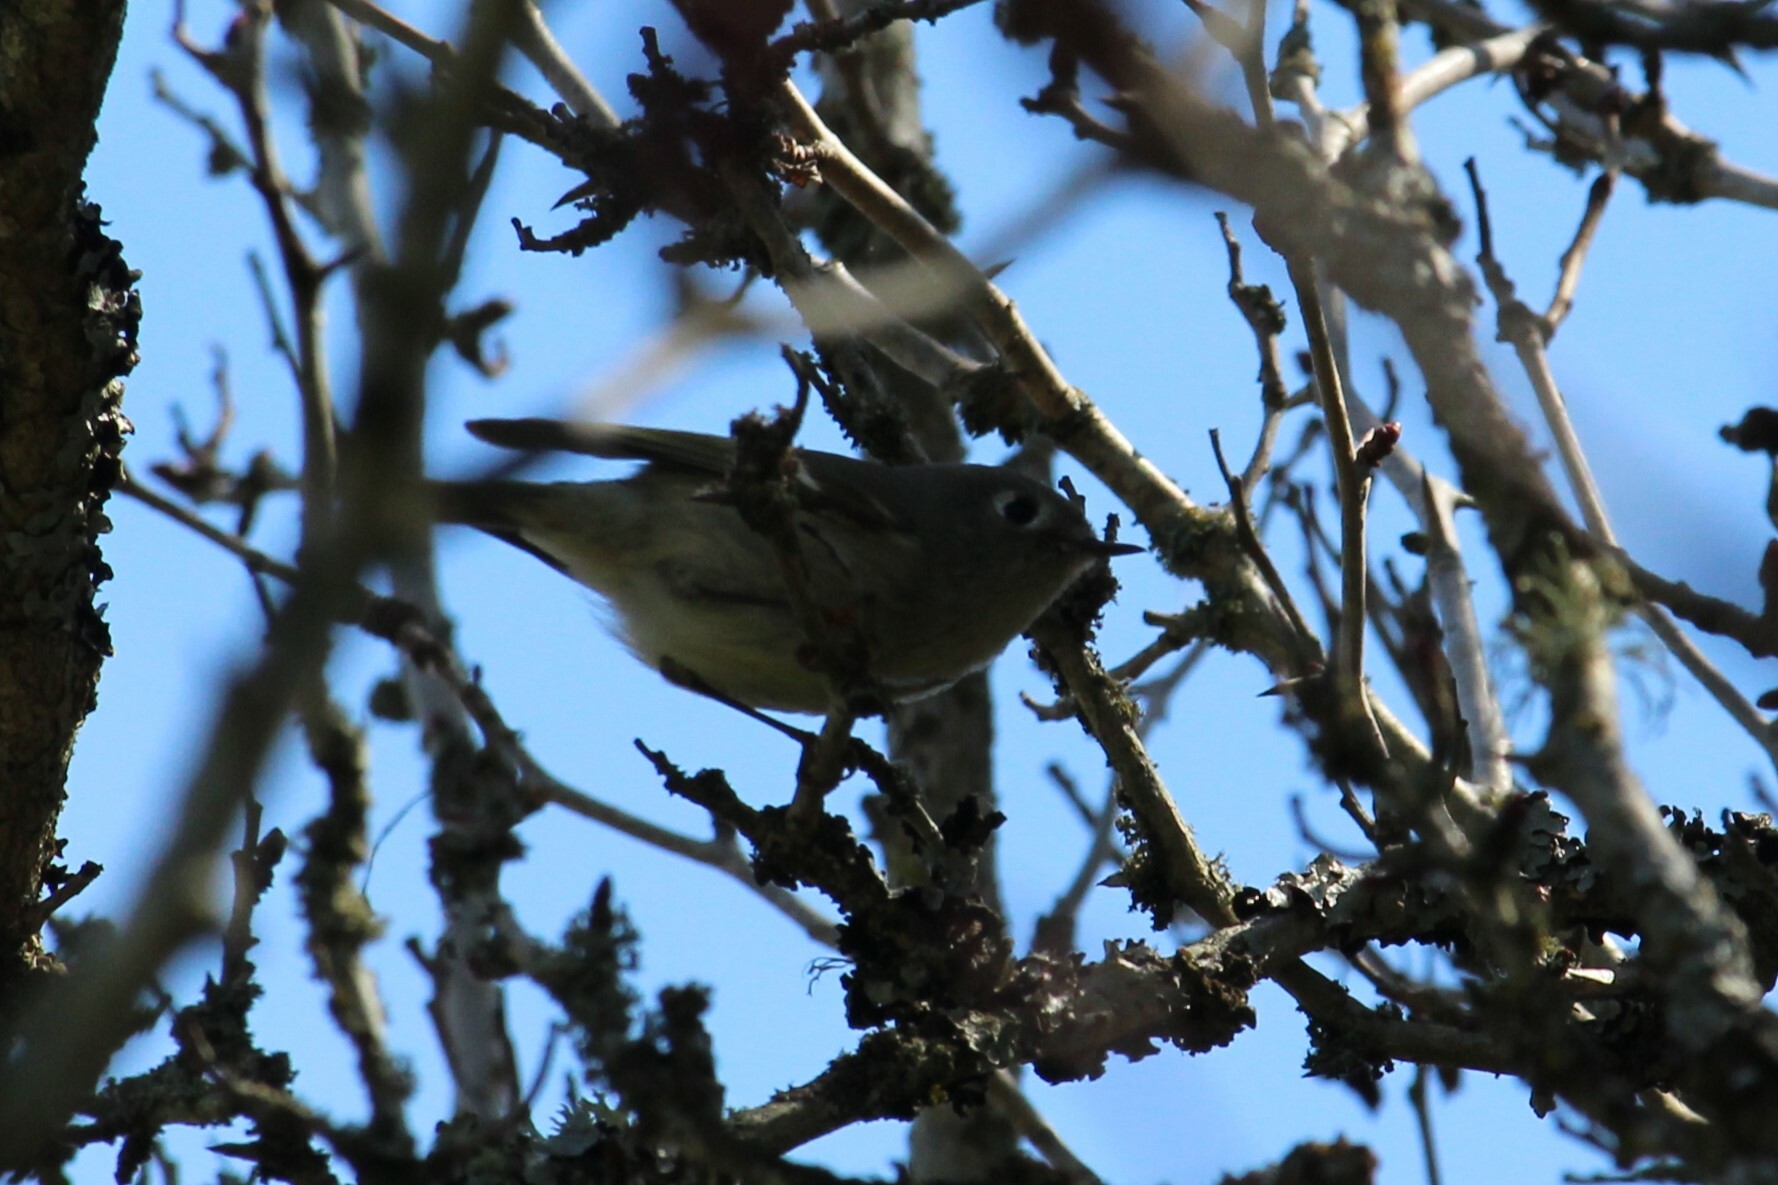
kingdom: Animalia
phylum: Chordata
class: Aves
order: Passeriformes
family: Regulidae
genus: Regulus
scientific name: Regulus calendula
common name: Ruby-crowned kinglet
